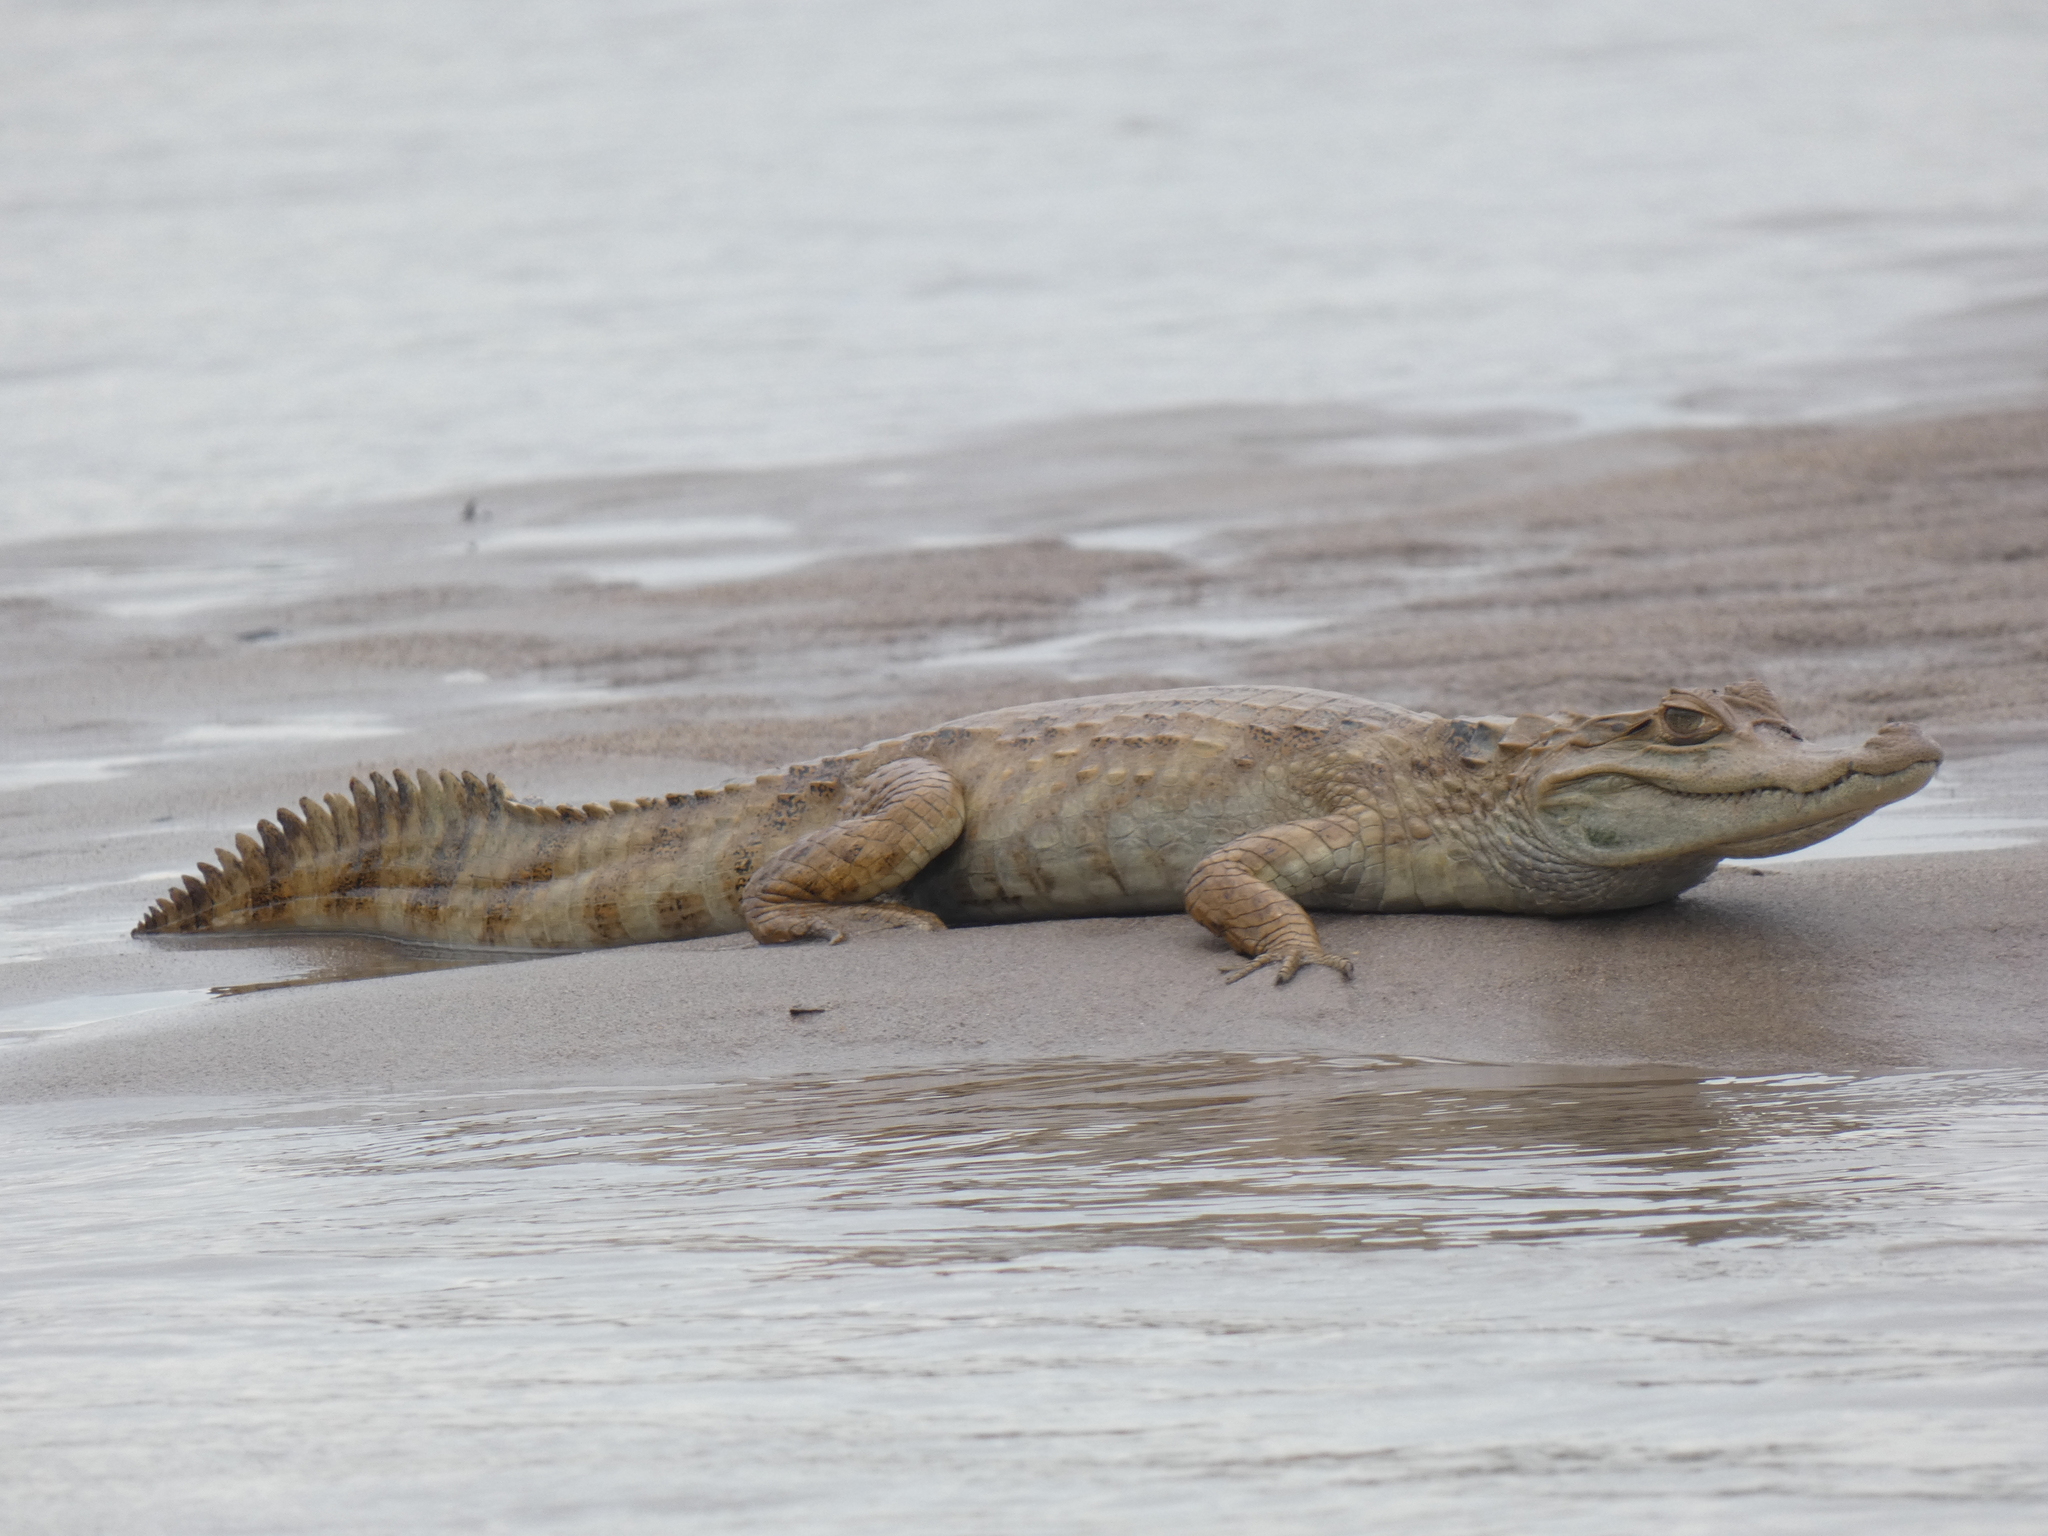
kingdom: Animalia
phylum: Chordata
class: Crocodylia
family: Alligatoridae
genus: Caiman
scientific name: Caiman crocodilus
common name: Common caiman
